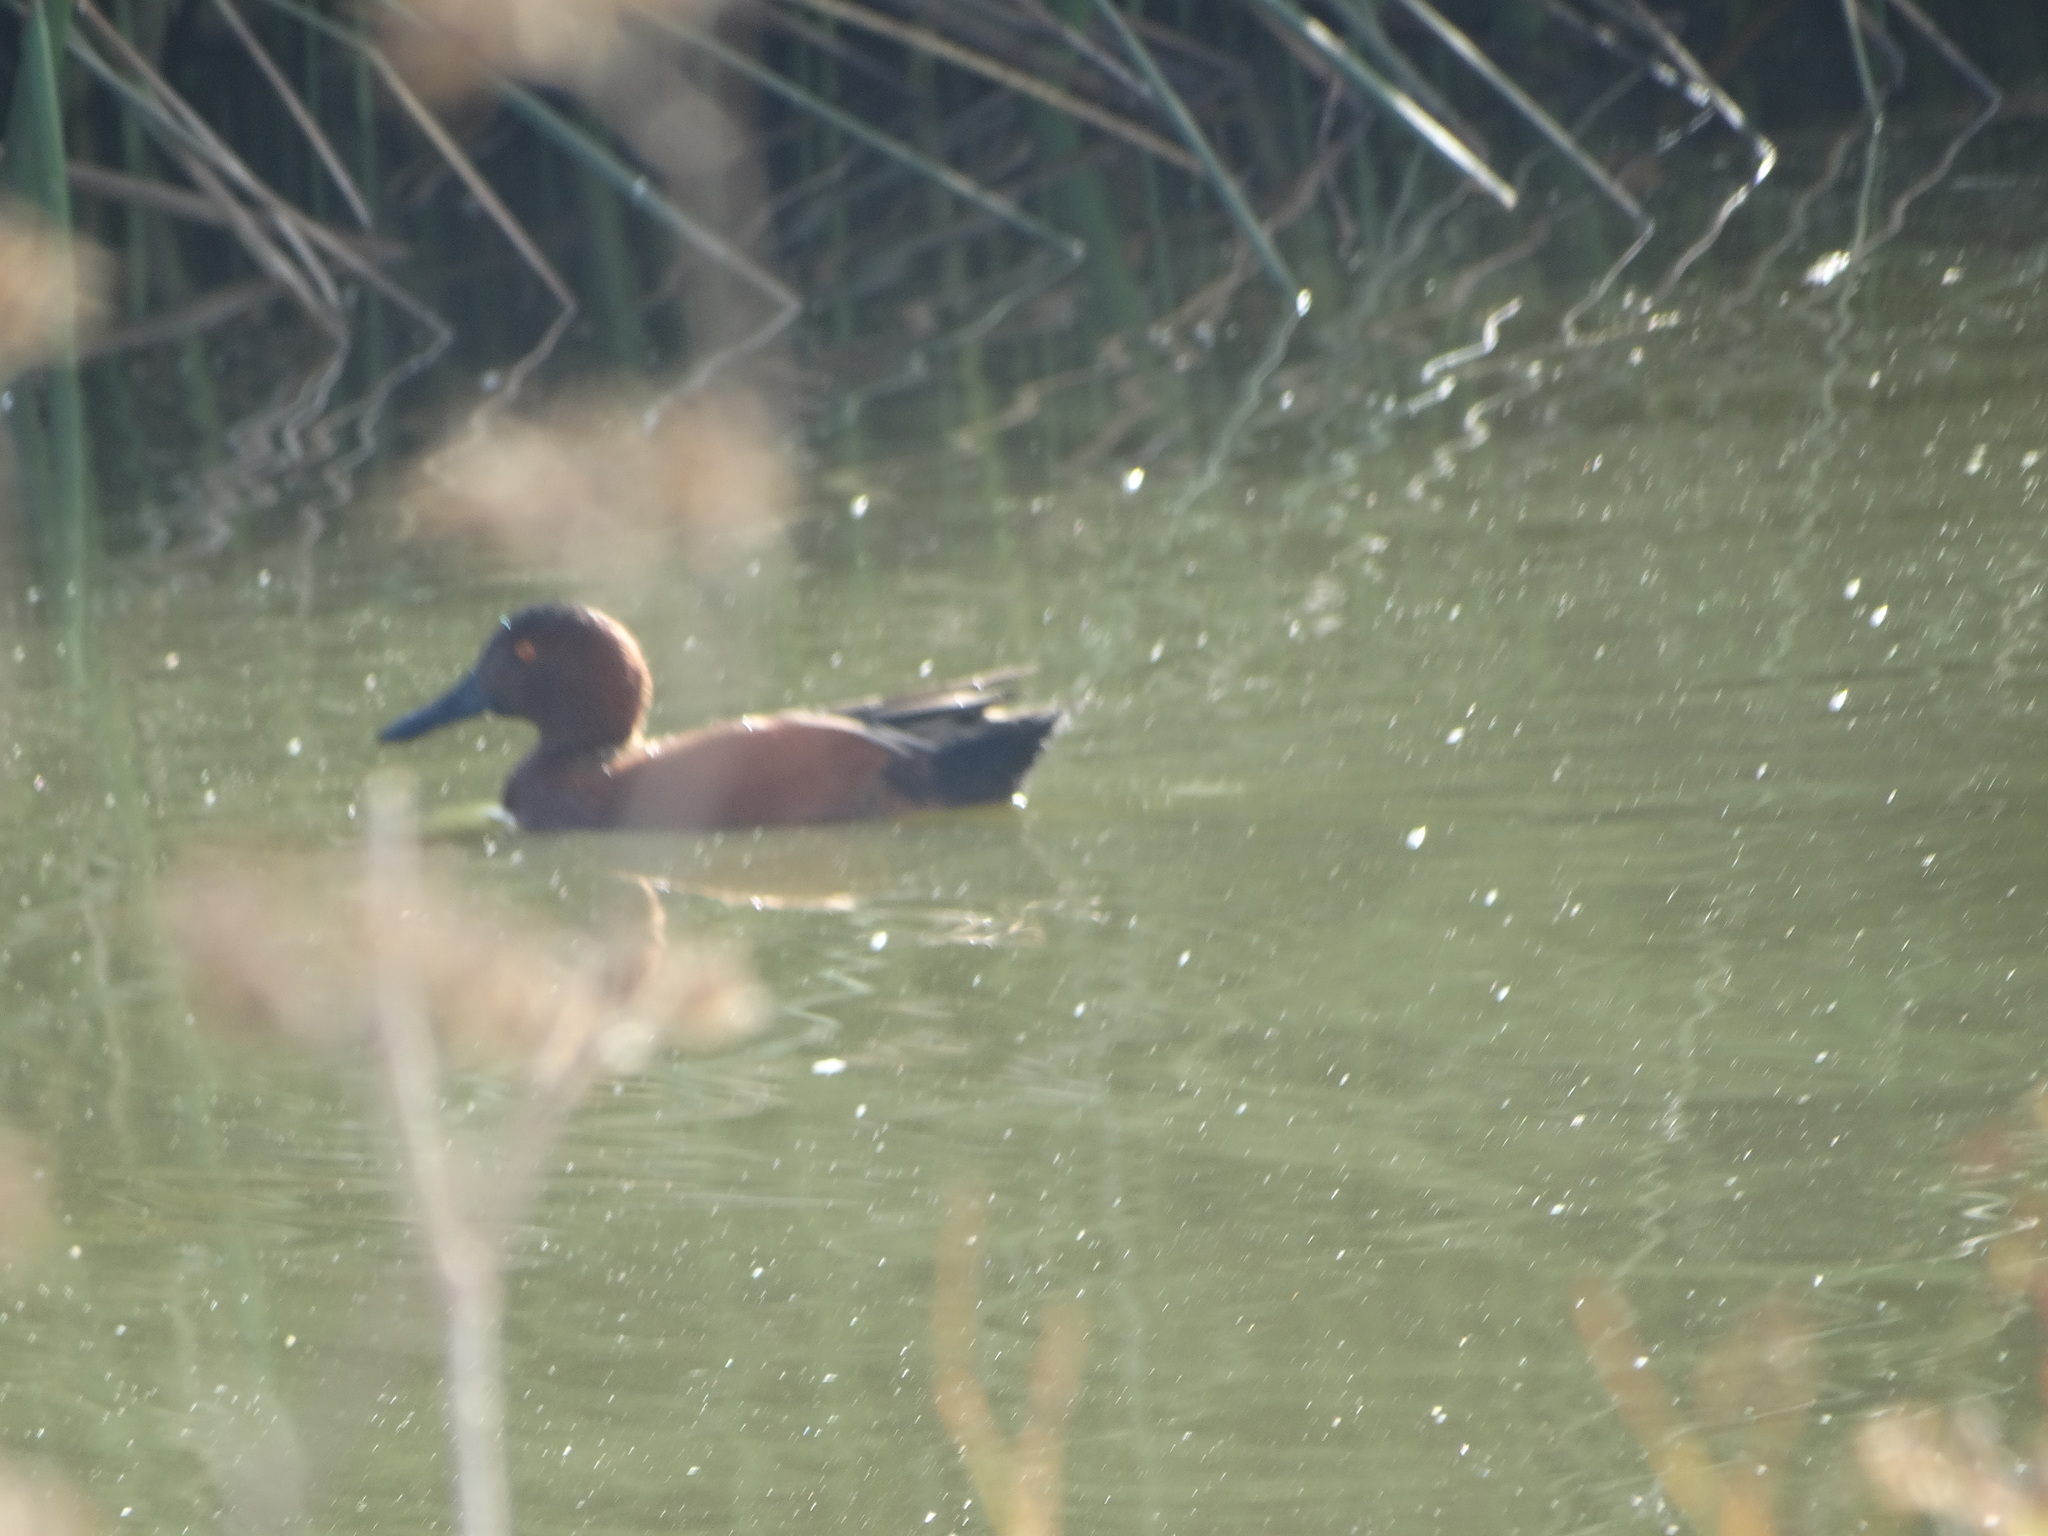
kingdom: Animalia
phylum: Chordata
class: Aves
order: Anseriformes
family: Anatidae
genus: Spatula
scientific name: Spatula cyanoptera
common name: Cinnamon teal
